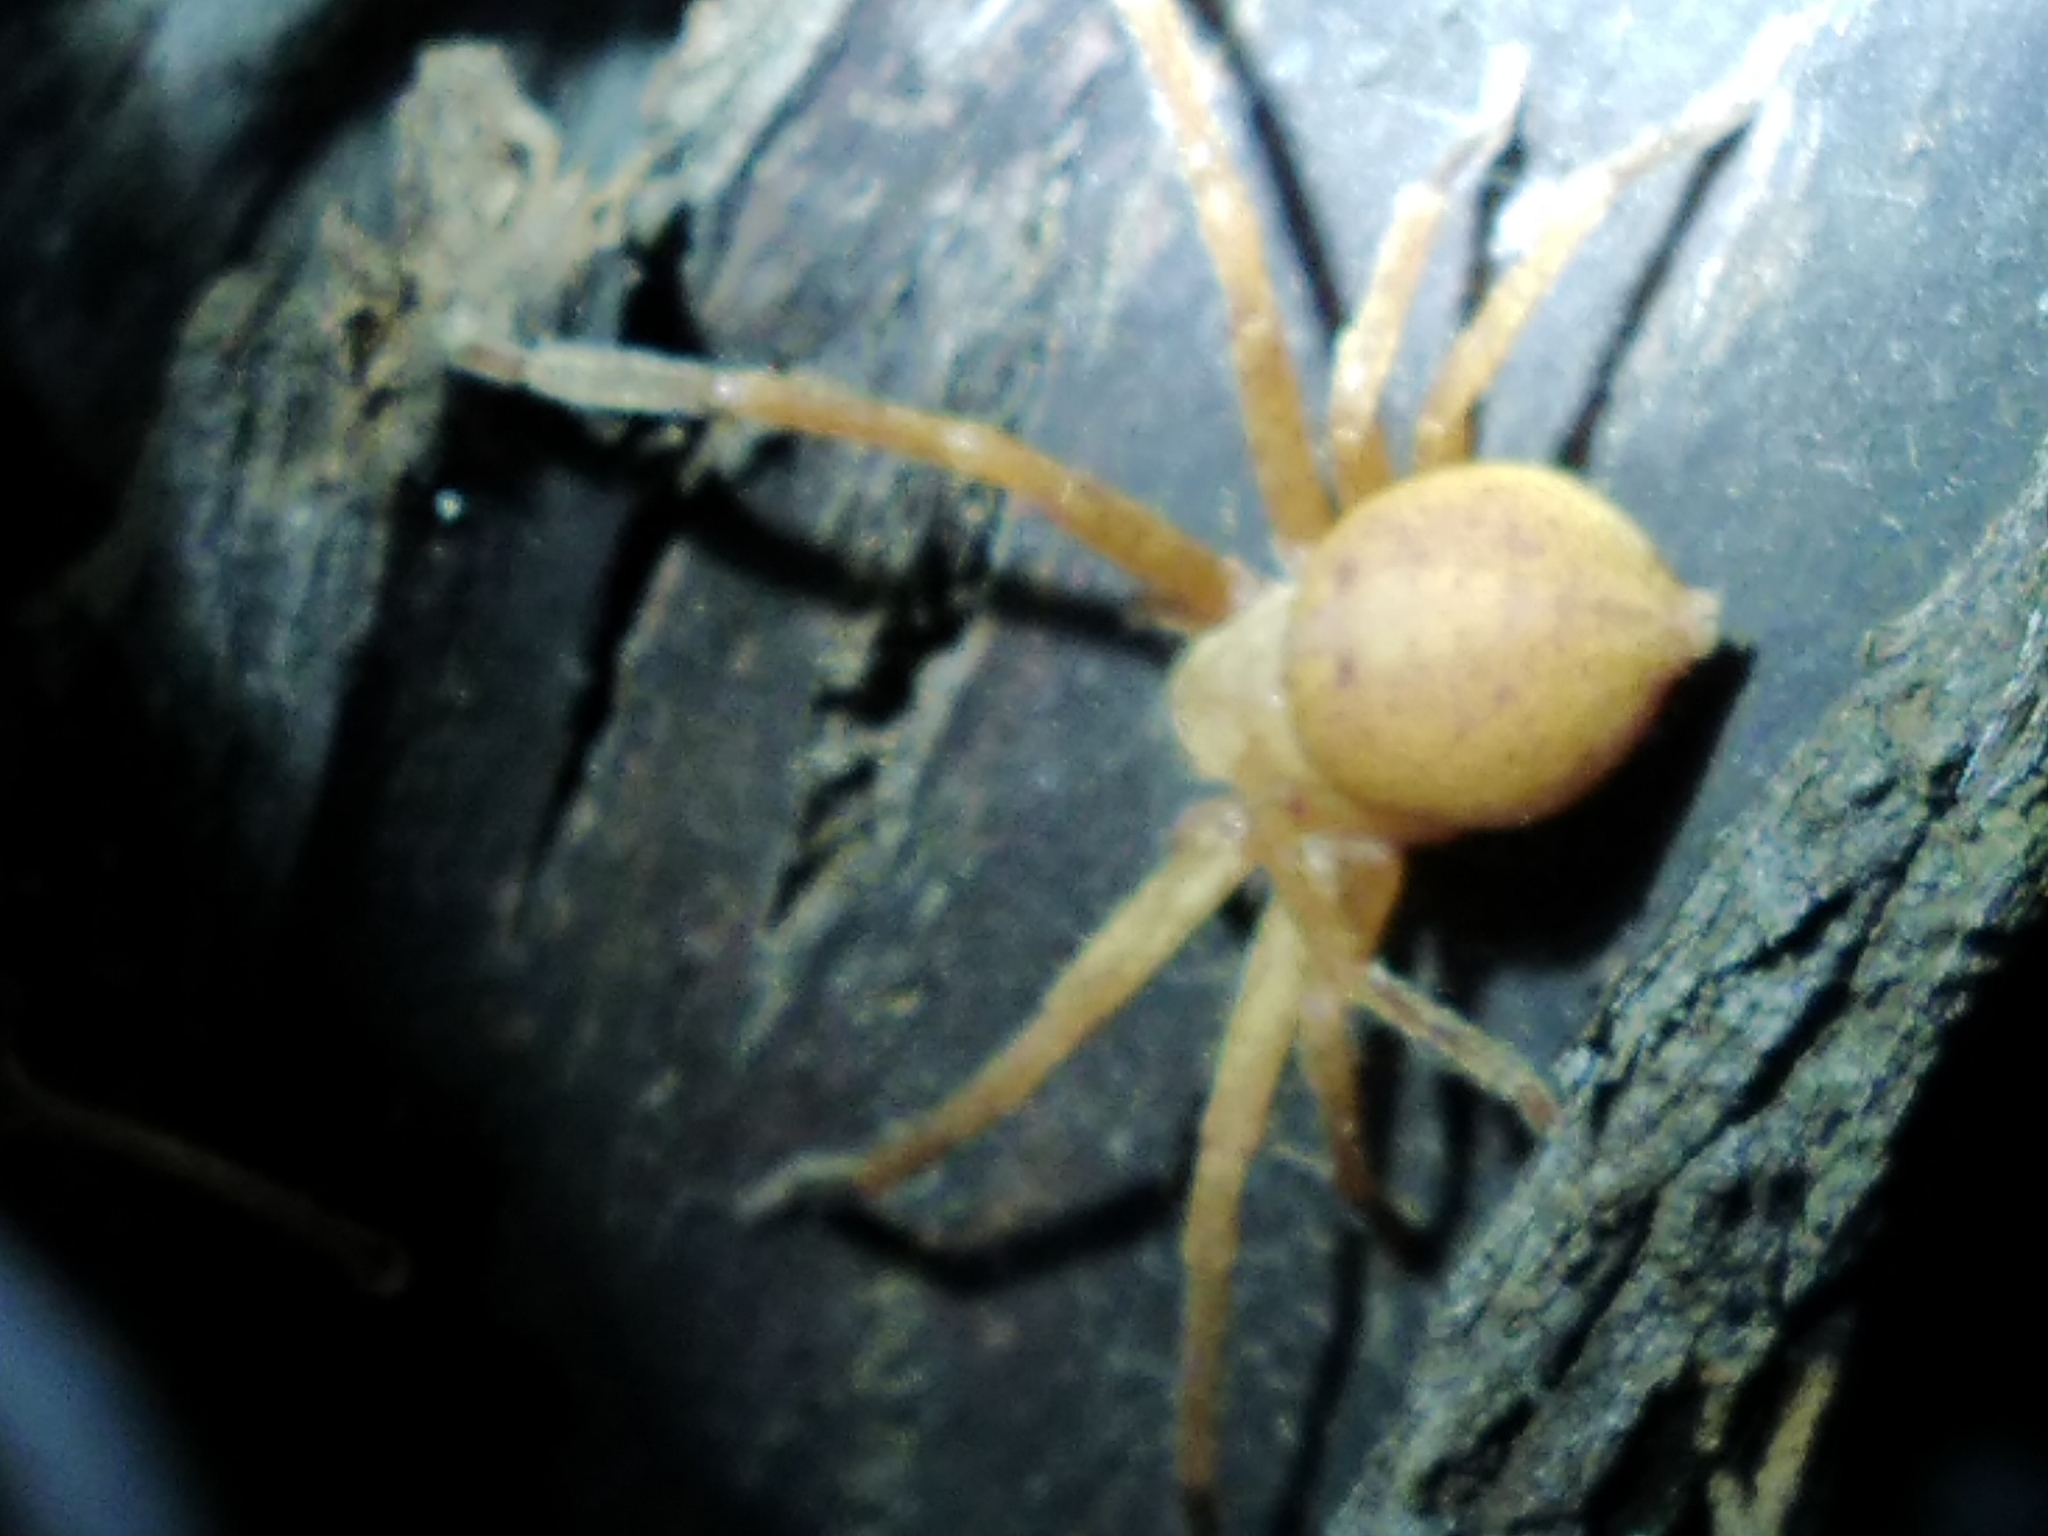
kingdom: Animalia
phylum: Arthropoda
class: Arachnida
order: Araneae
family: Sparassidae
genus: Olios
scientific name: Olios argelasius
